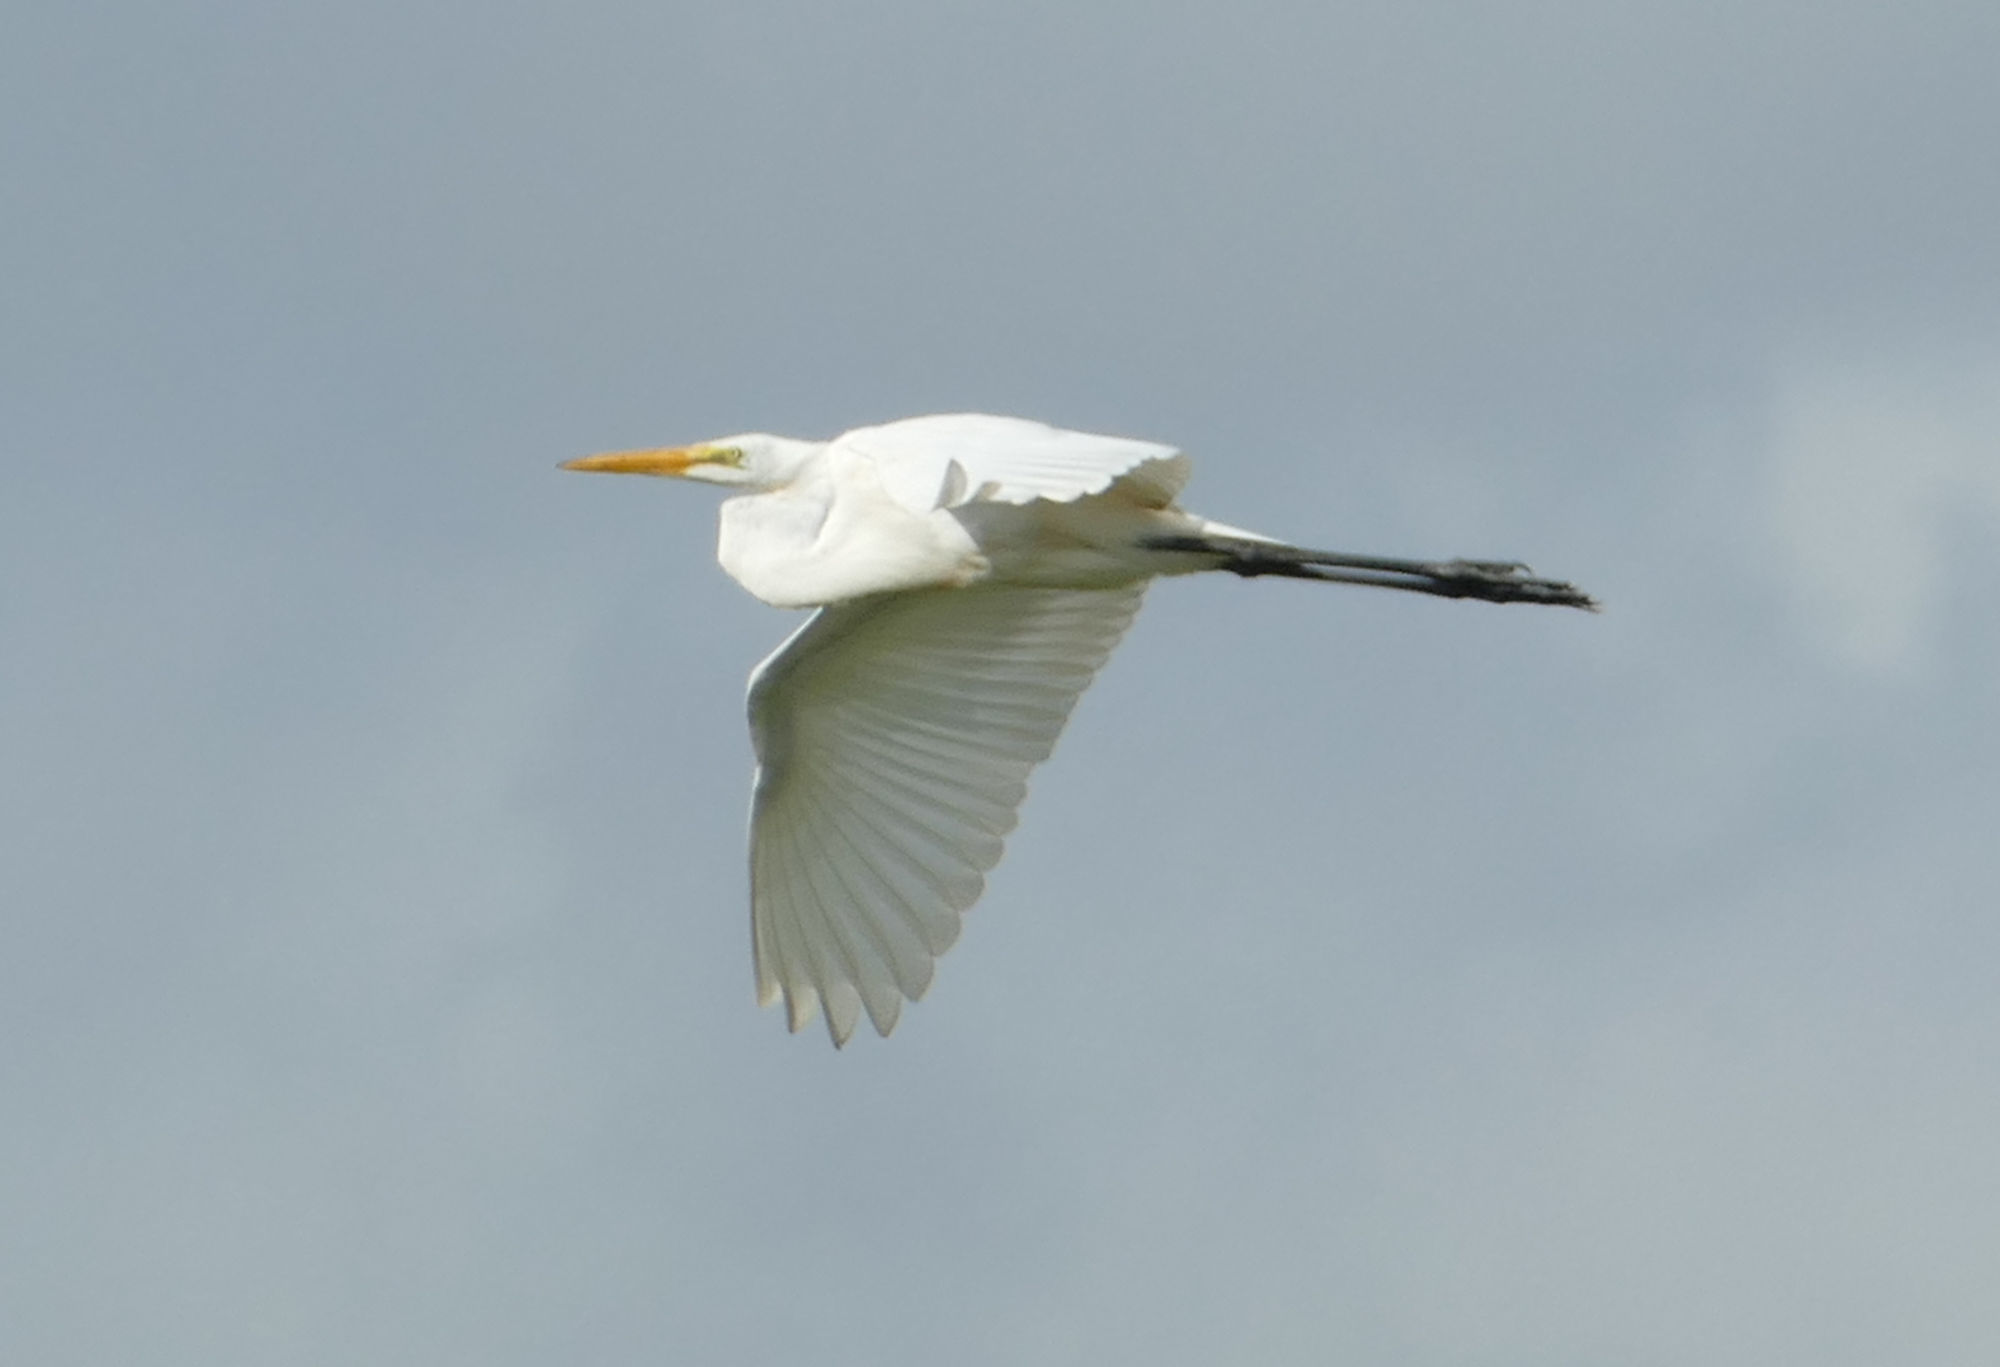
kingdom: Animalia
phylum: Chordata
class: Aves
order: Pelecaniformes
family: Ardeidae
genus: Ardea
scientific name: Ardea alba
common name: Great egret
